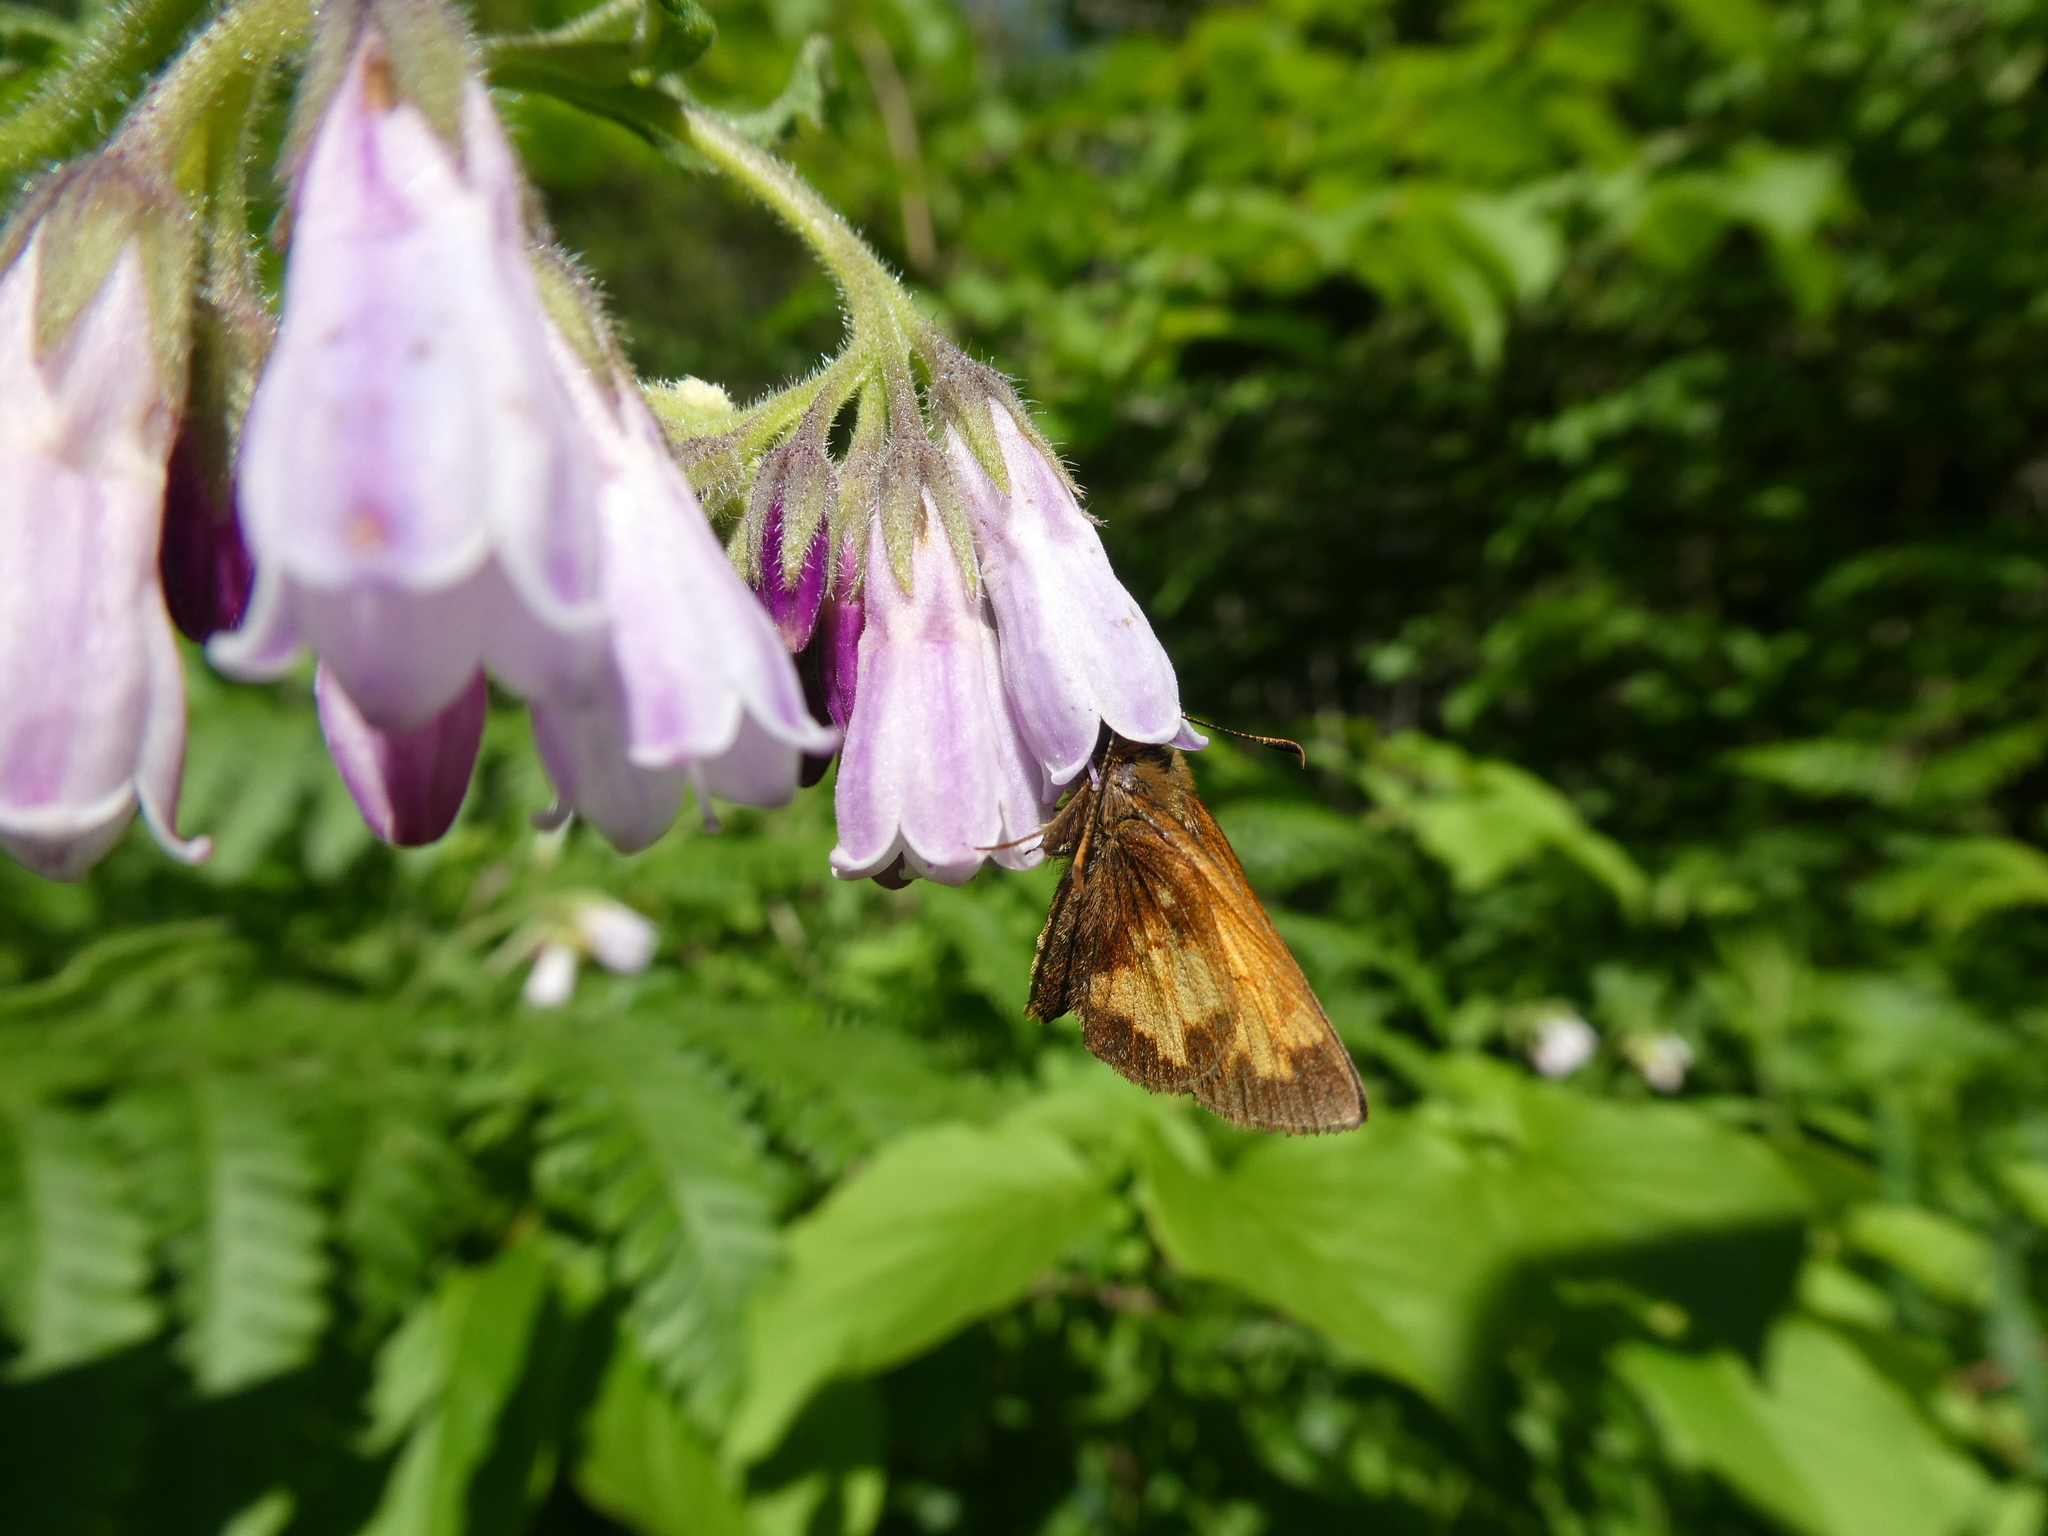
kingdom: Animalia
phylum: Arthropoda
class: Insecta
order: Lepidoptera
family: Hesperiidae
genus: Lon
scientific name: Lon hobomok
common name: Hobomok skipper
